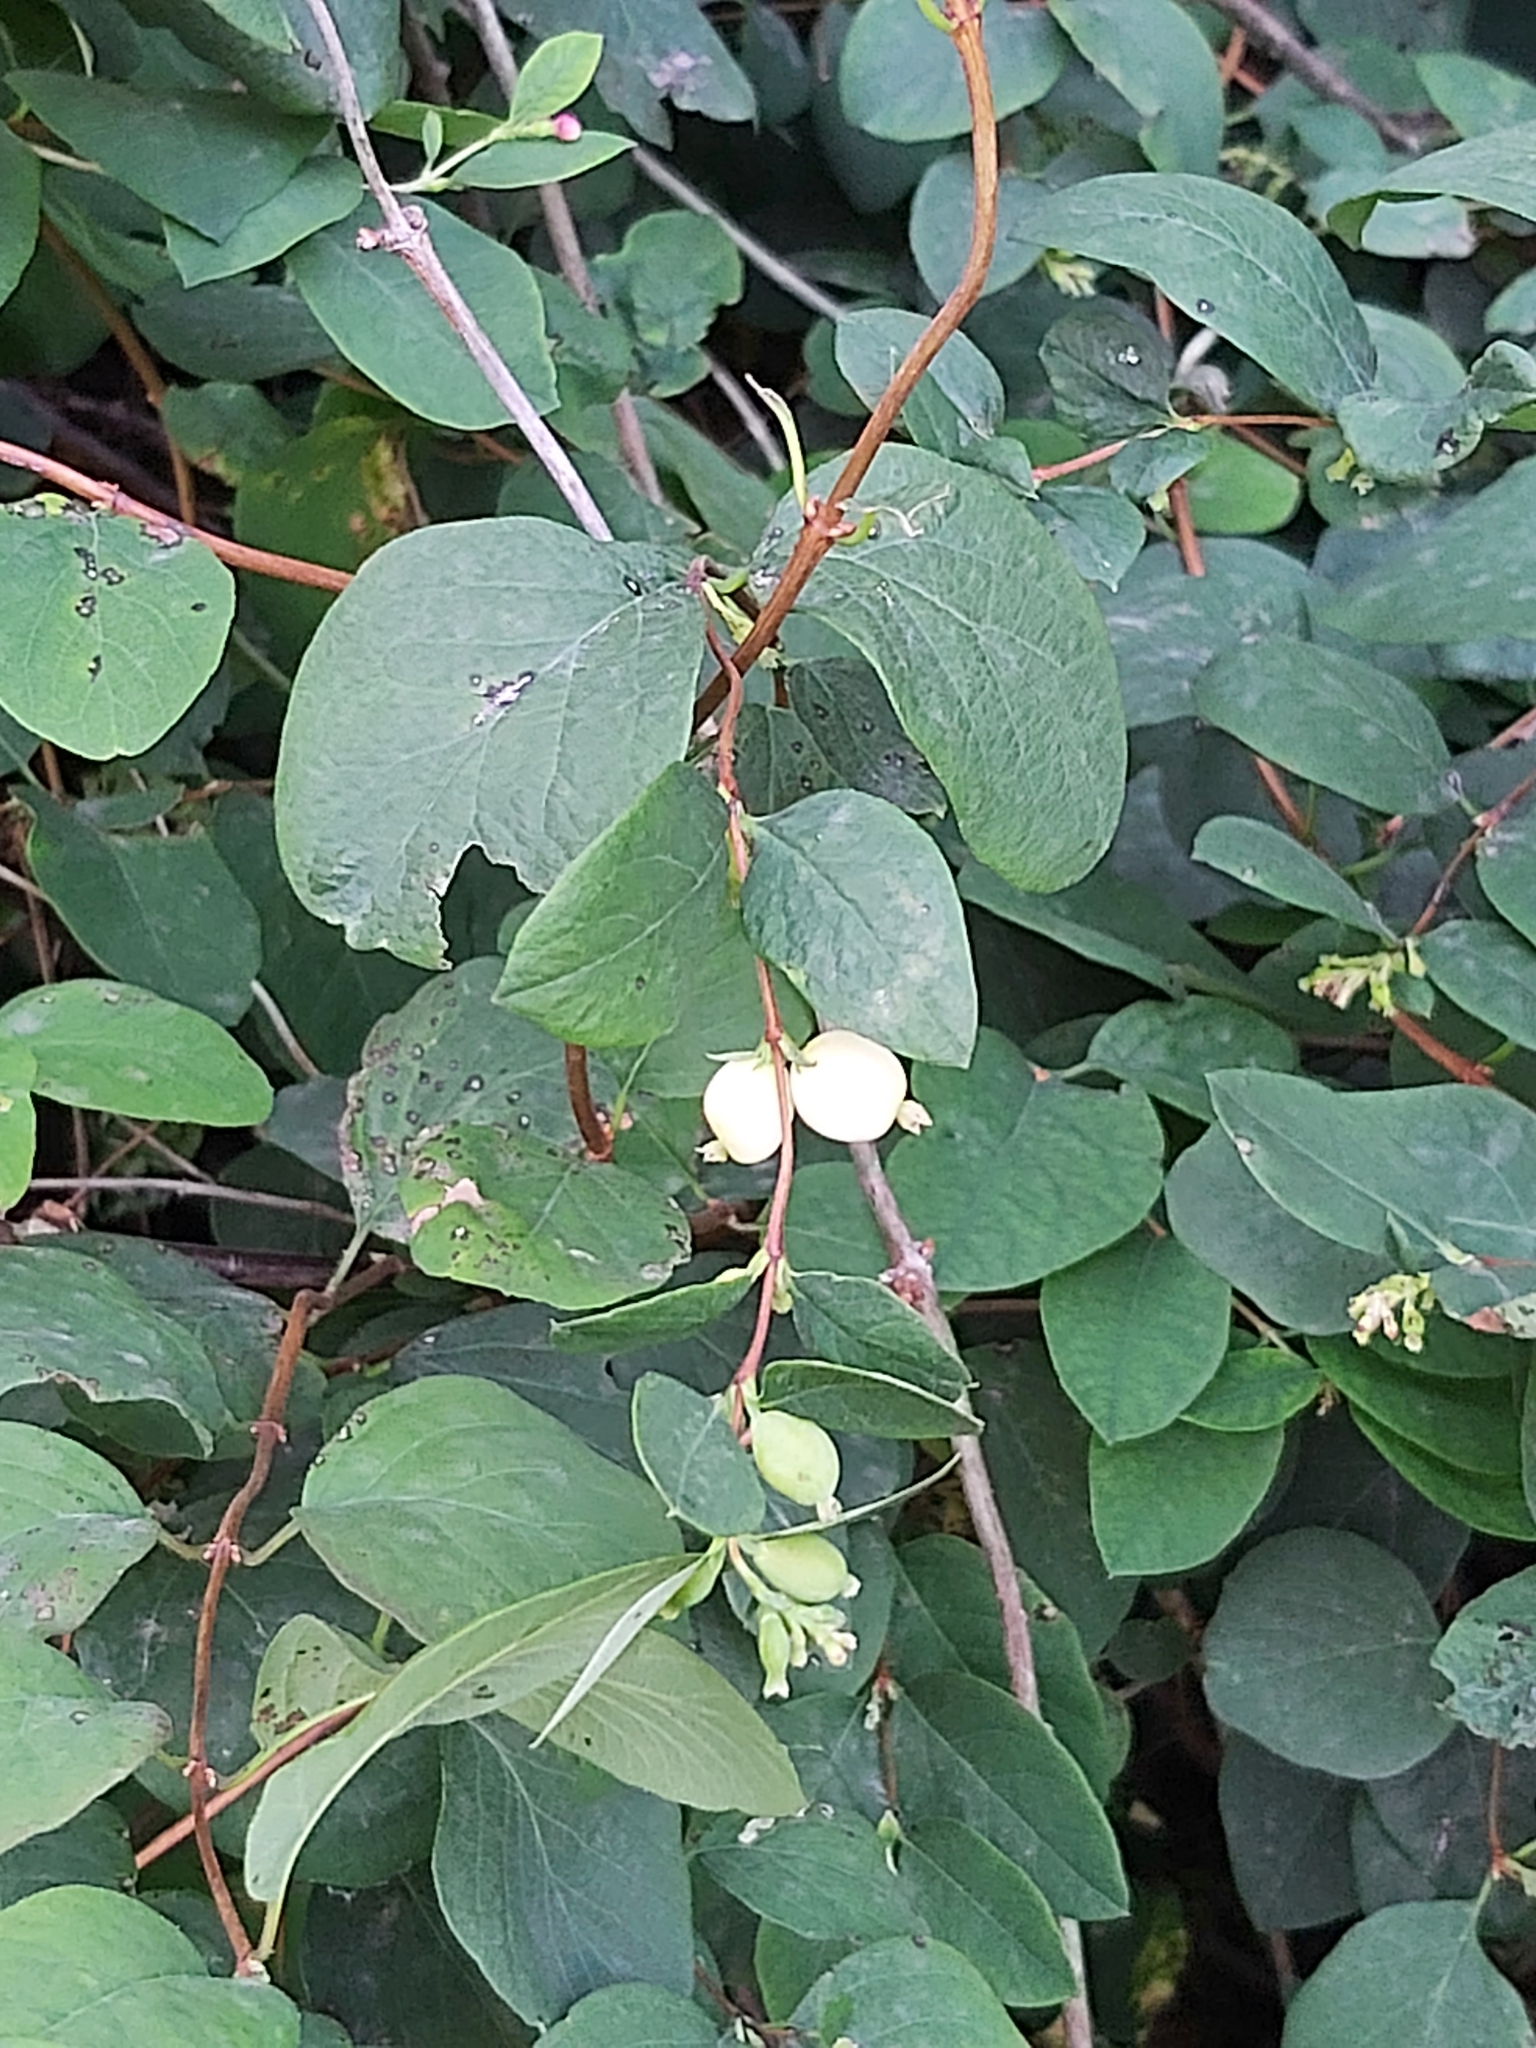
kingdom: Plantae
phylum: Tracheophyta
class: Magnoliopsida
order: Dipsacales
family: Caprifoliaceae
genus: Symphoricarpos
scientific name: Symphoricarpos albus
